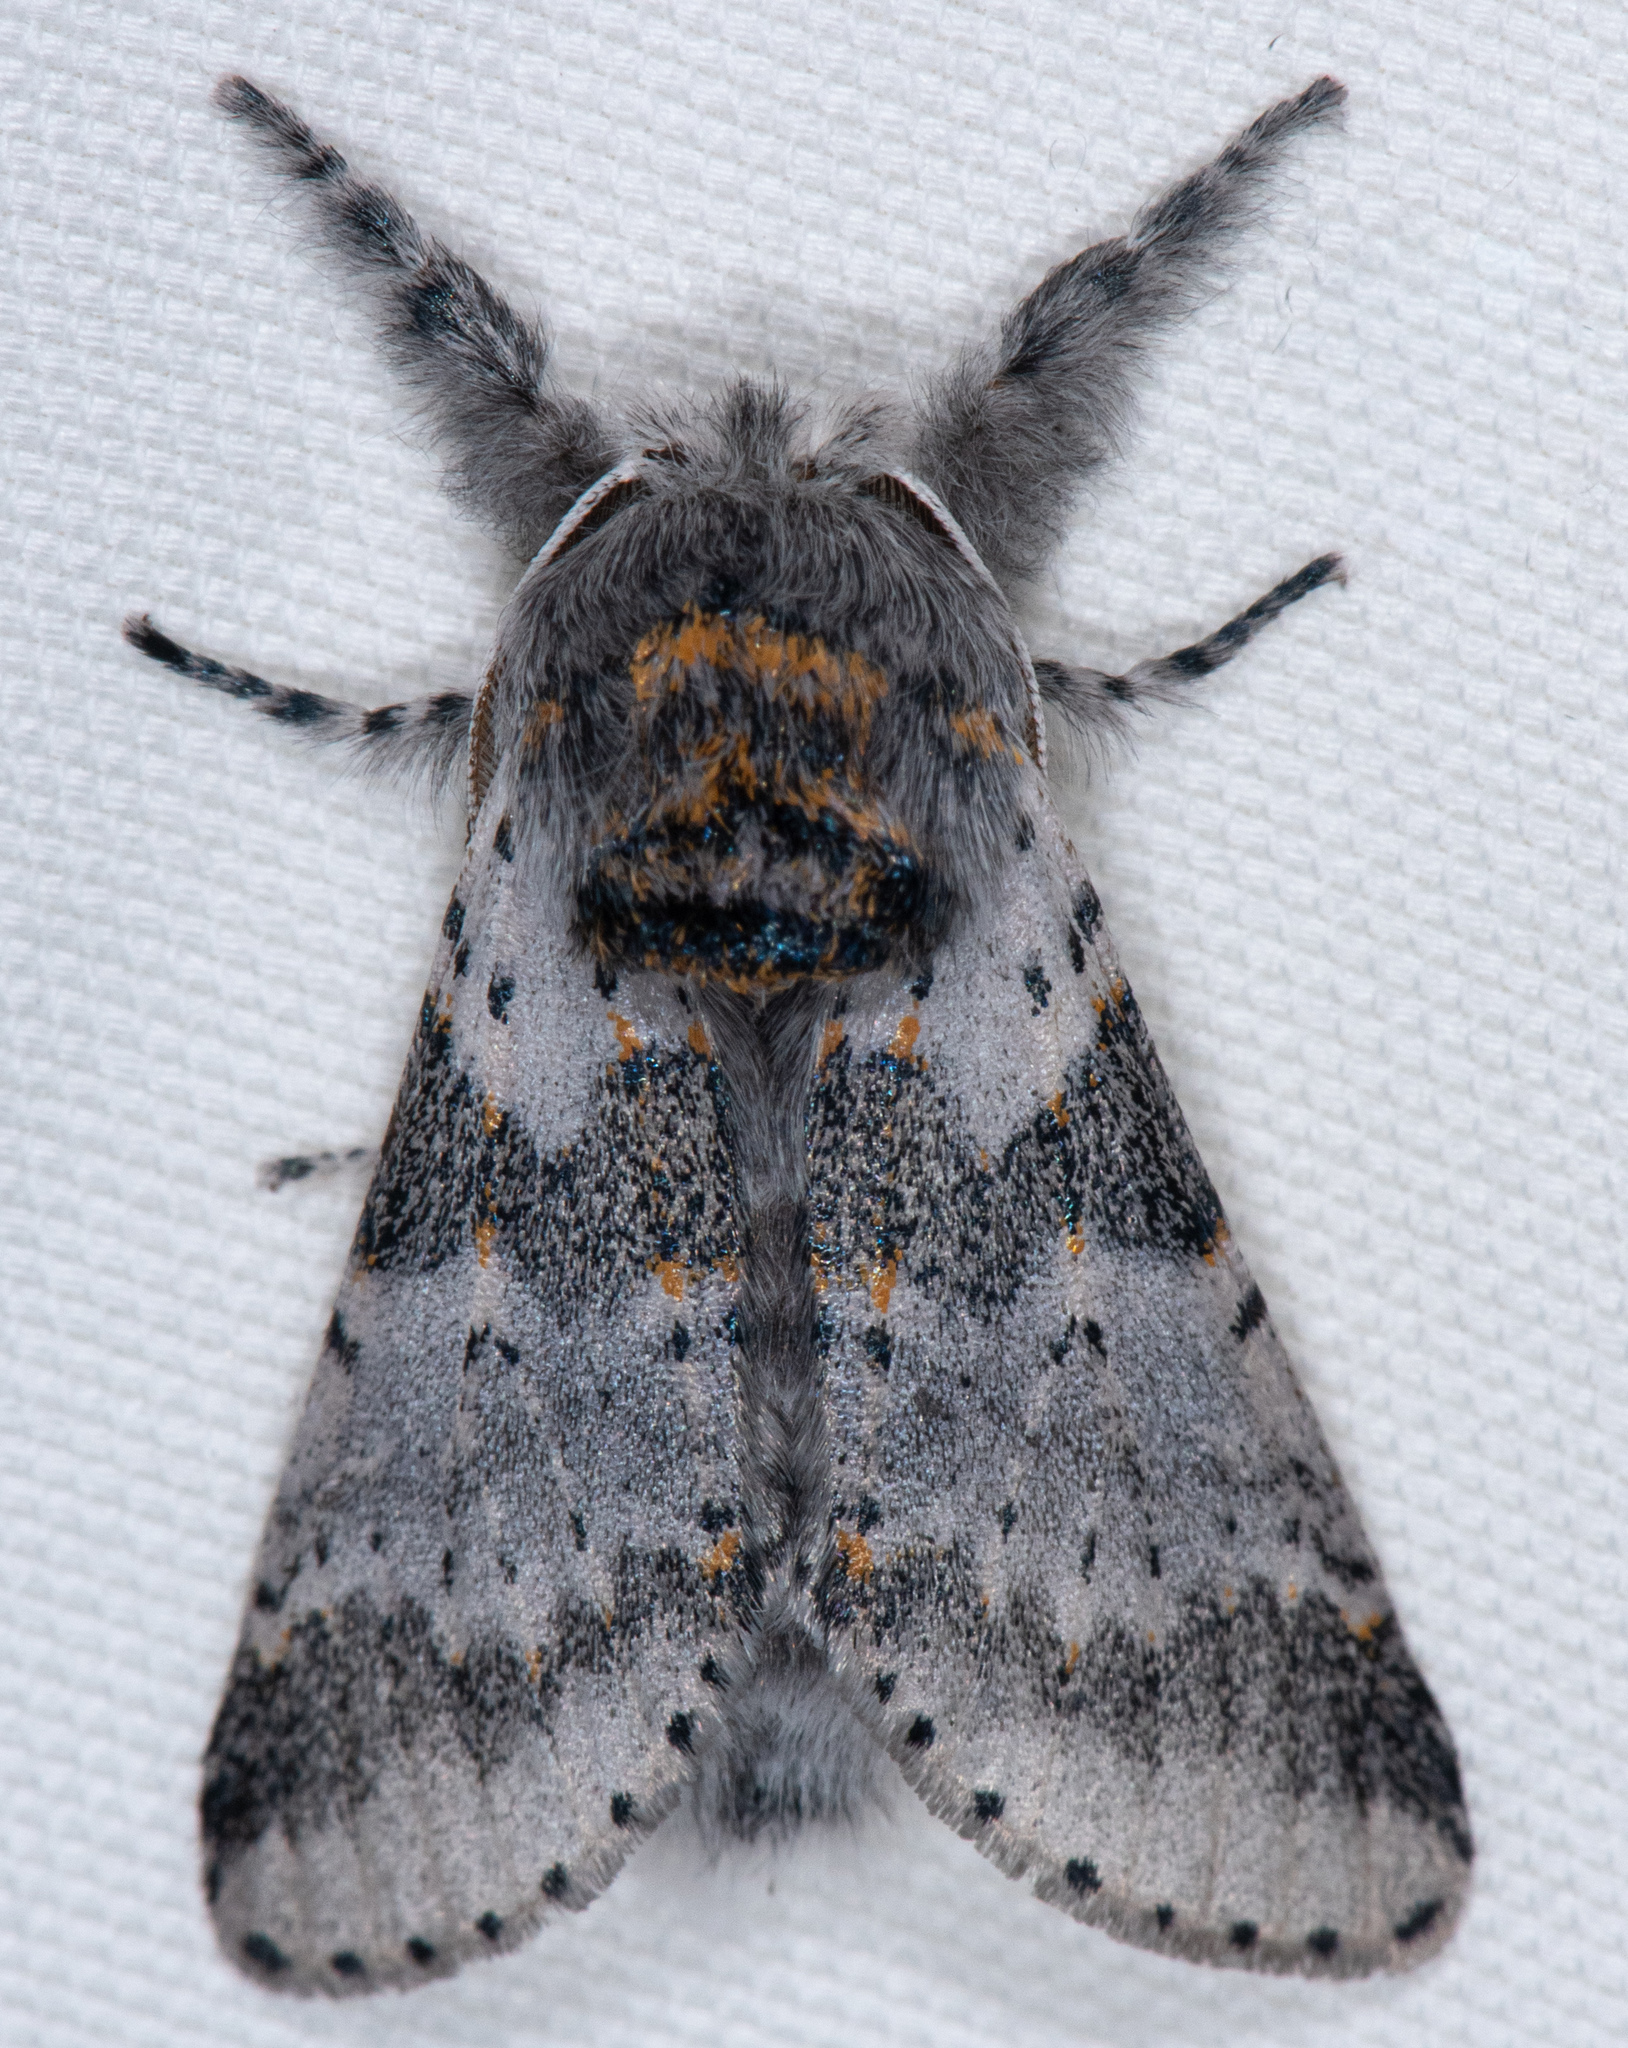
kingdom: Animalia
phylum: Arthropoda
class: Insecta
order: Lepidoptera
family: Notodontidae
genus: Furcula
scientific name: Furcula cinerea
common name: Gray furcula
